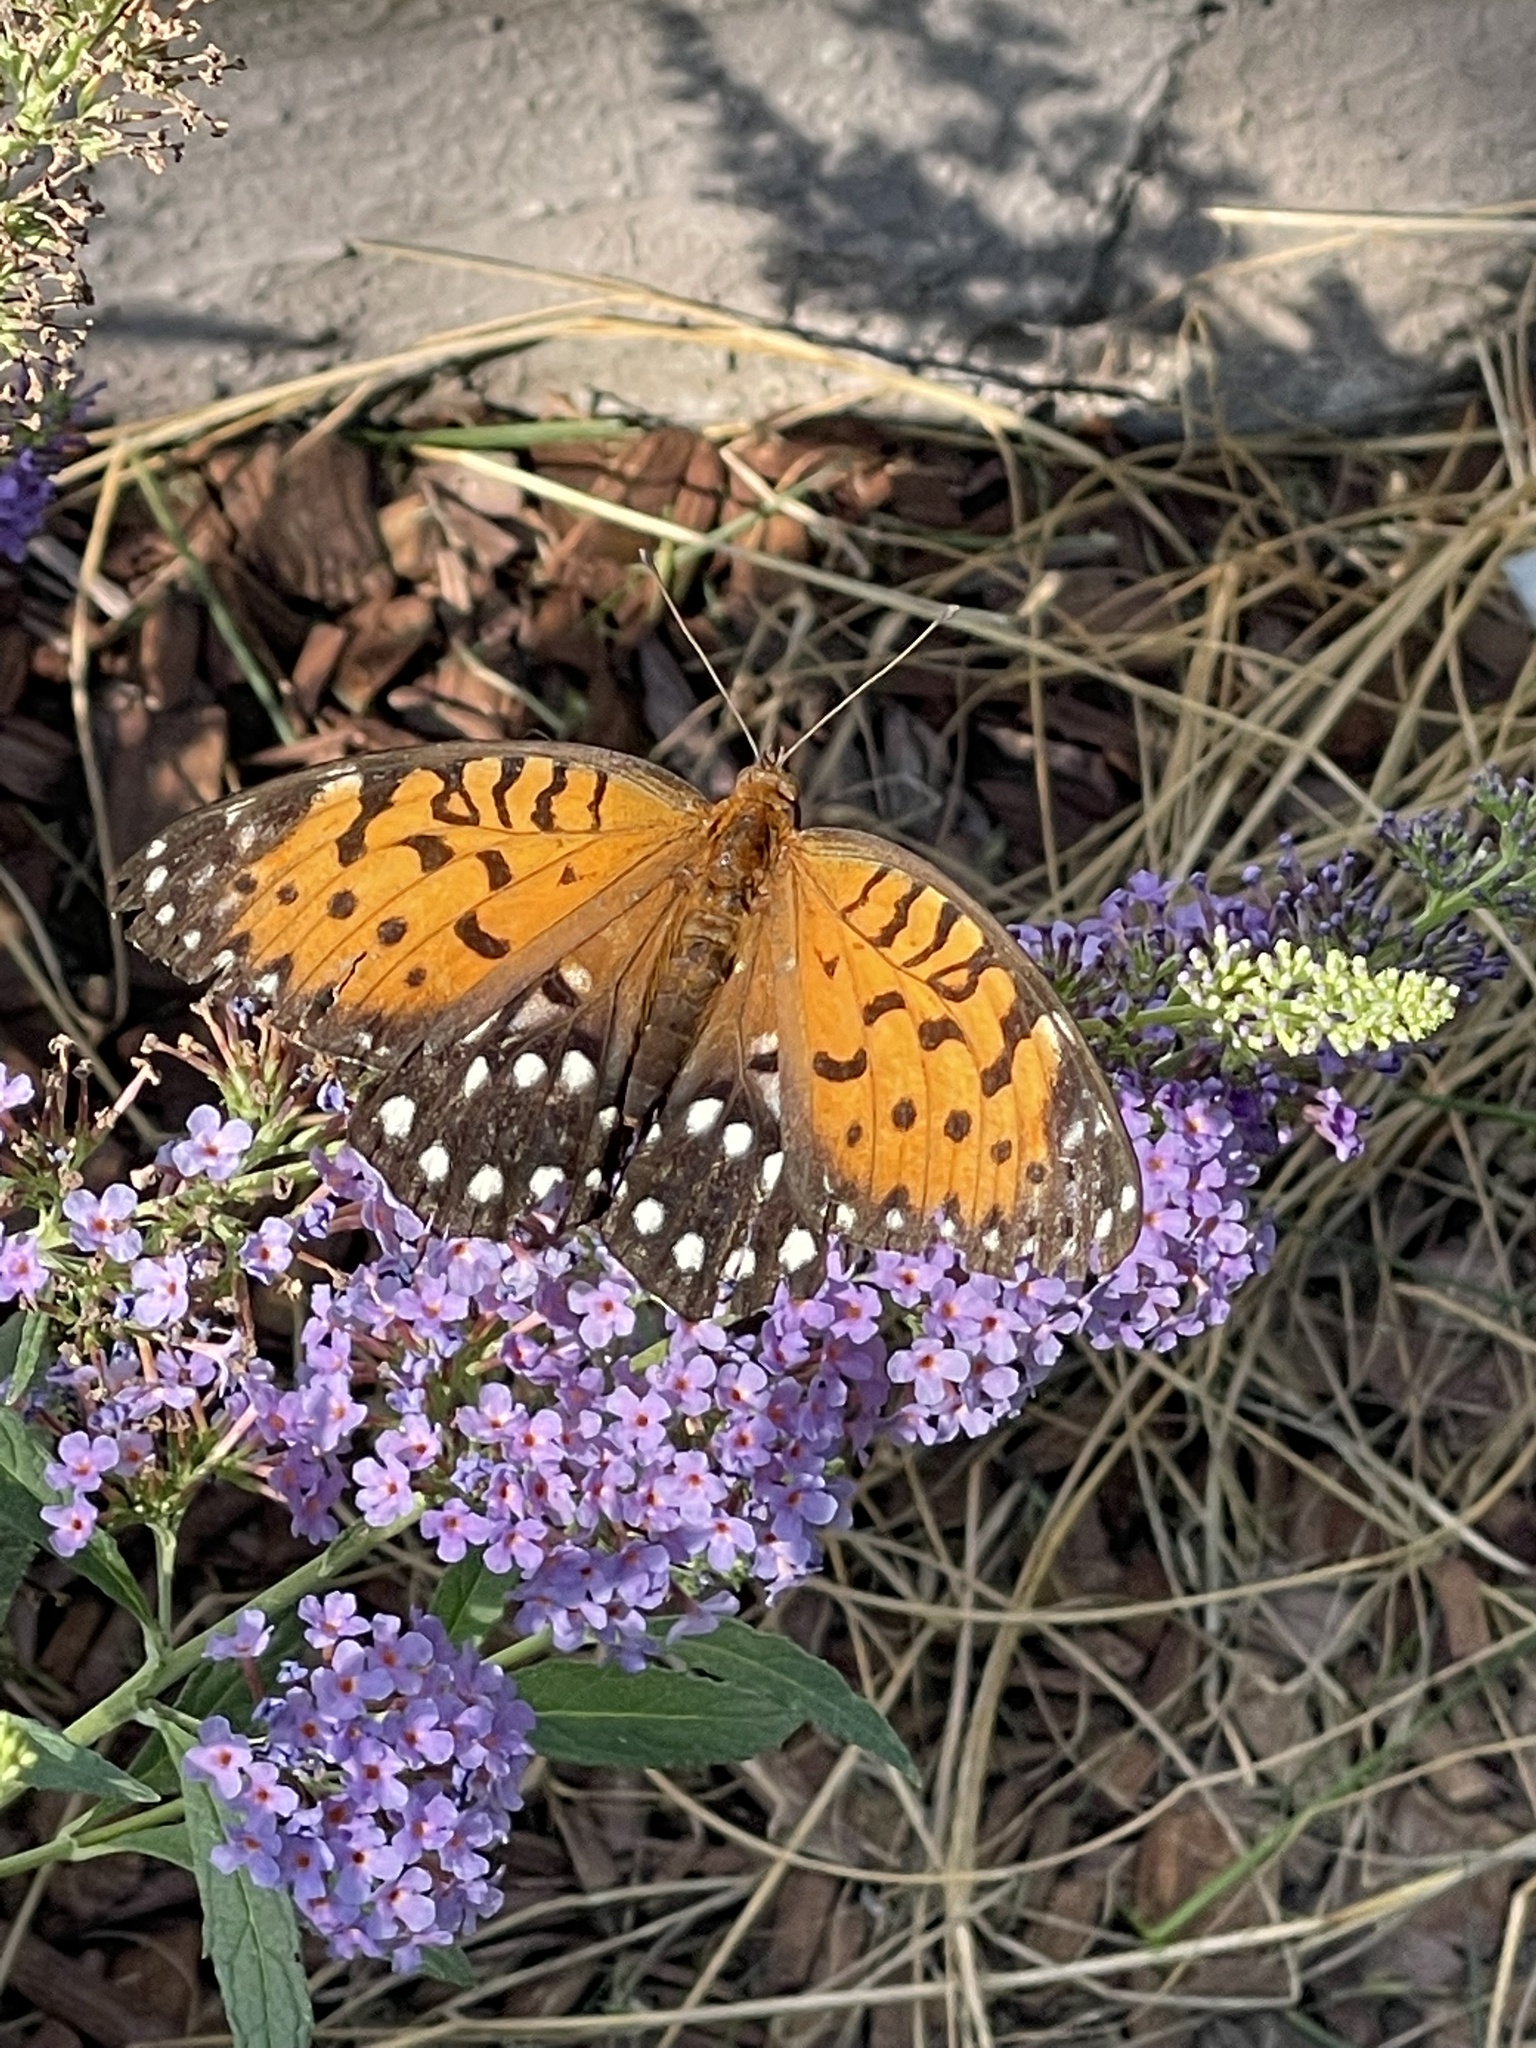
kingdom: Animalia
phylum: Arthropoda
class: Insecta
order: Lepidoptera
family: Nymphalidae
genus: Speyeria
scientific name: Speyeria idalia
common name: Regal fritillary
